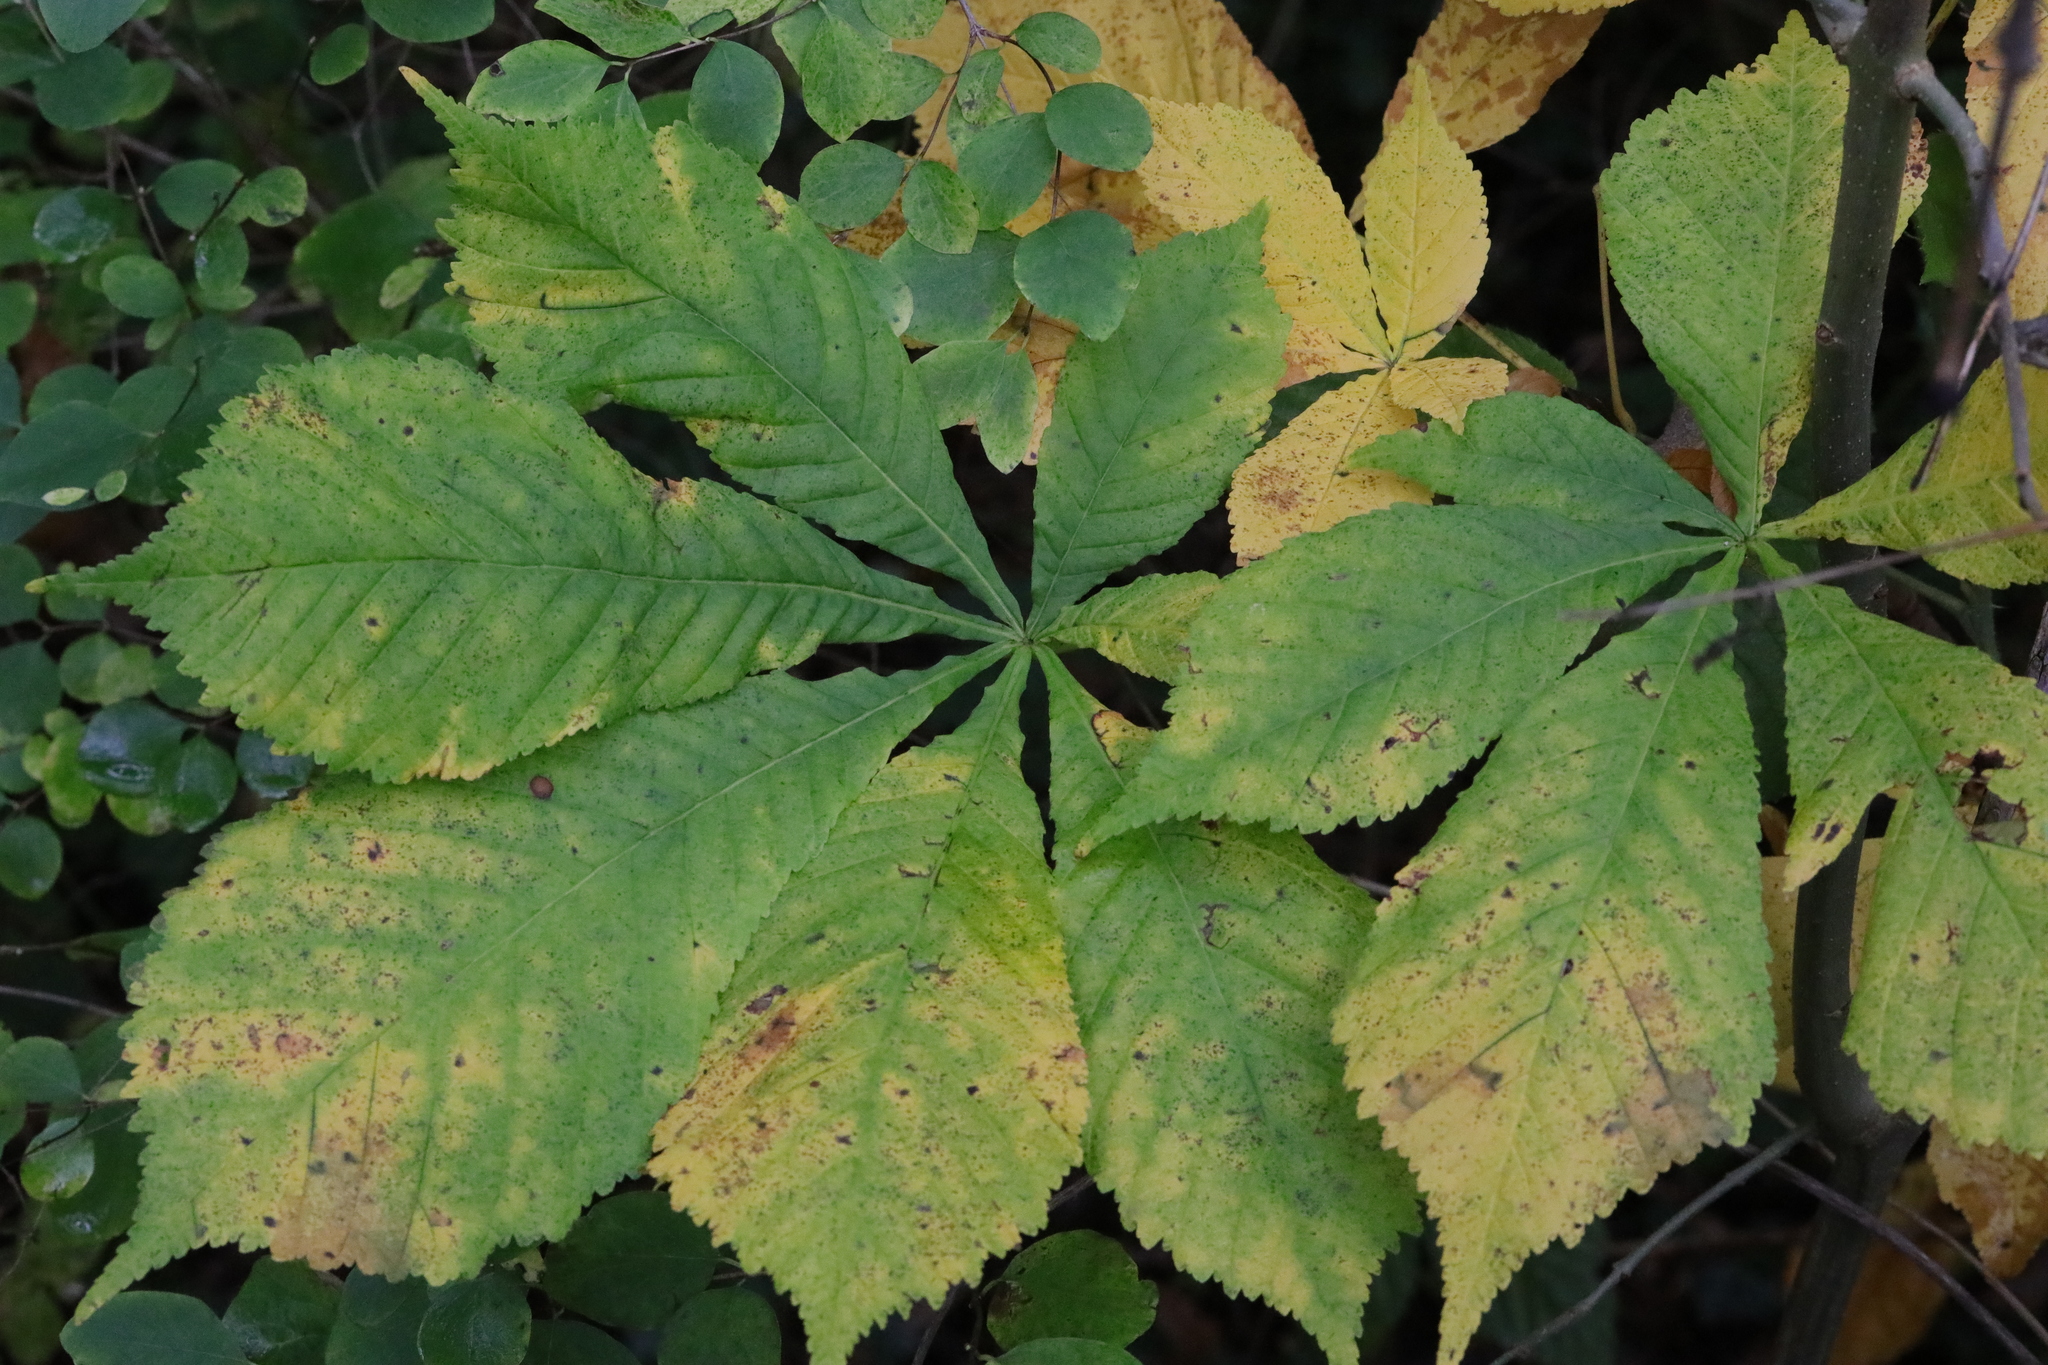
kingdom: Plantae
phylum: Tracheophyta
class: Magnoliopsida
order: Sapindales
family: Sapindaceae
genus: Aesculus
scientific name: Aesculus hippocastanum
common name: Horse-chestnut
